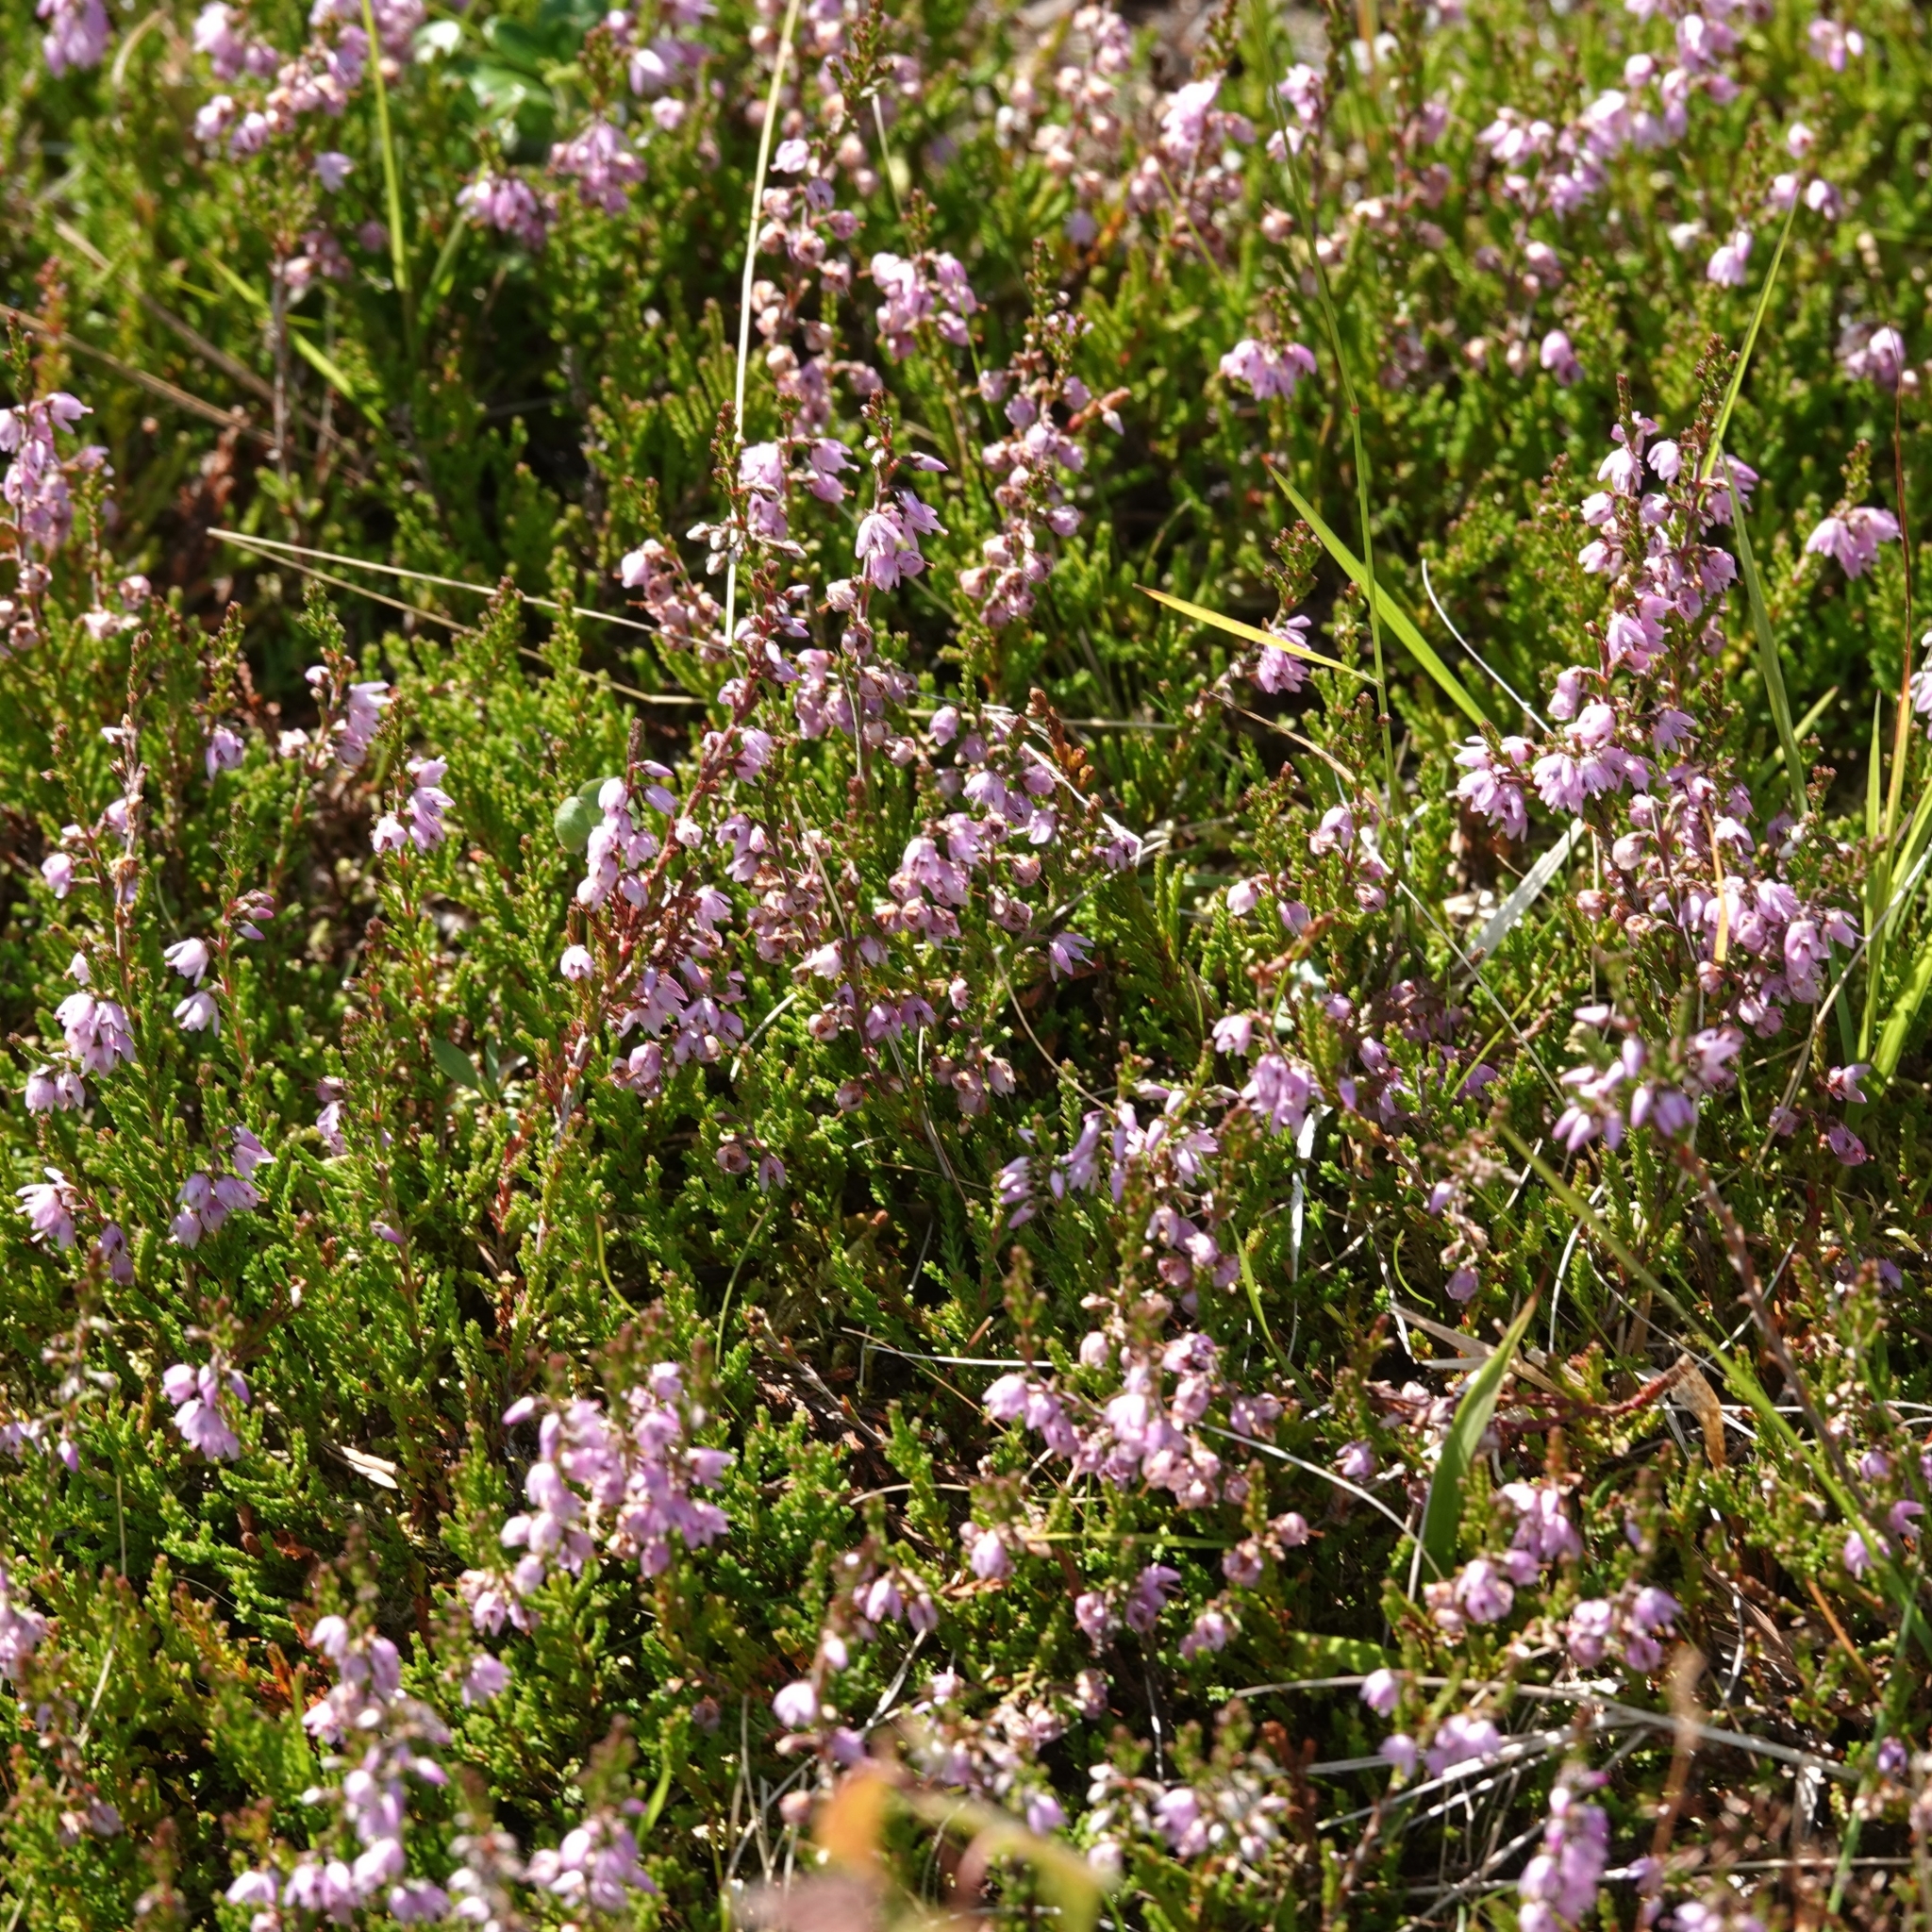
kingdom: Plantae
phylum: Tracheophyta
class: Magnoliopsida
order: Ericales
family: Ericaceae
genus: Calluna
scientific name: Calluna vulgaris
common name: Heather
